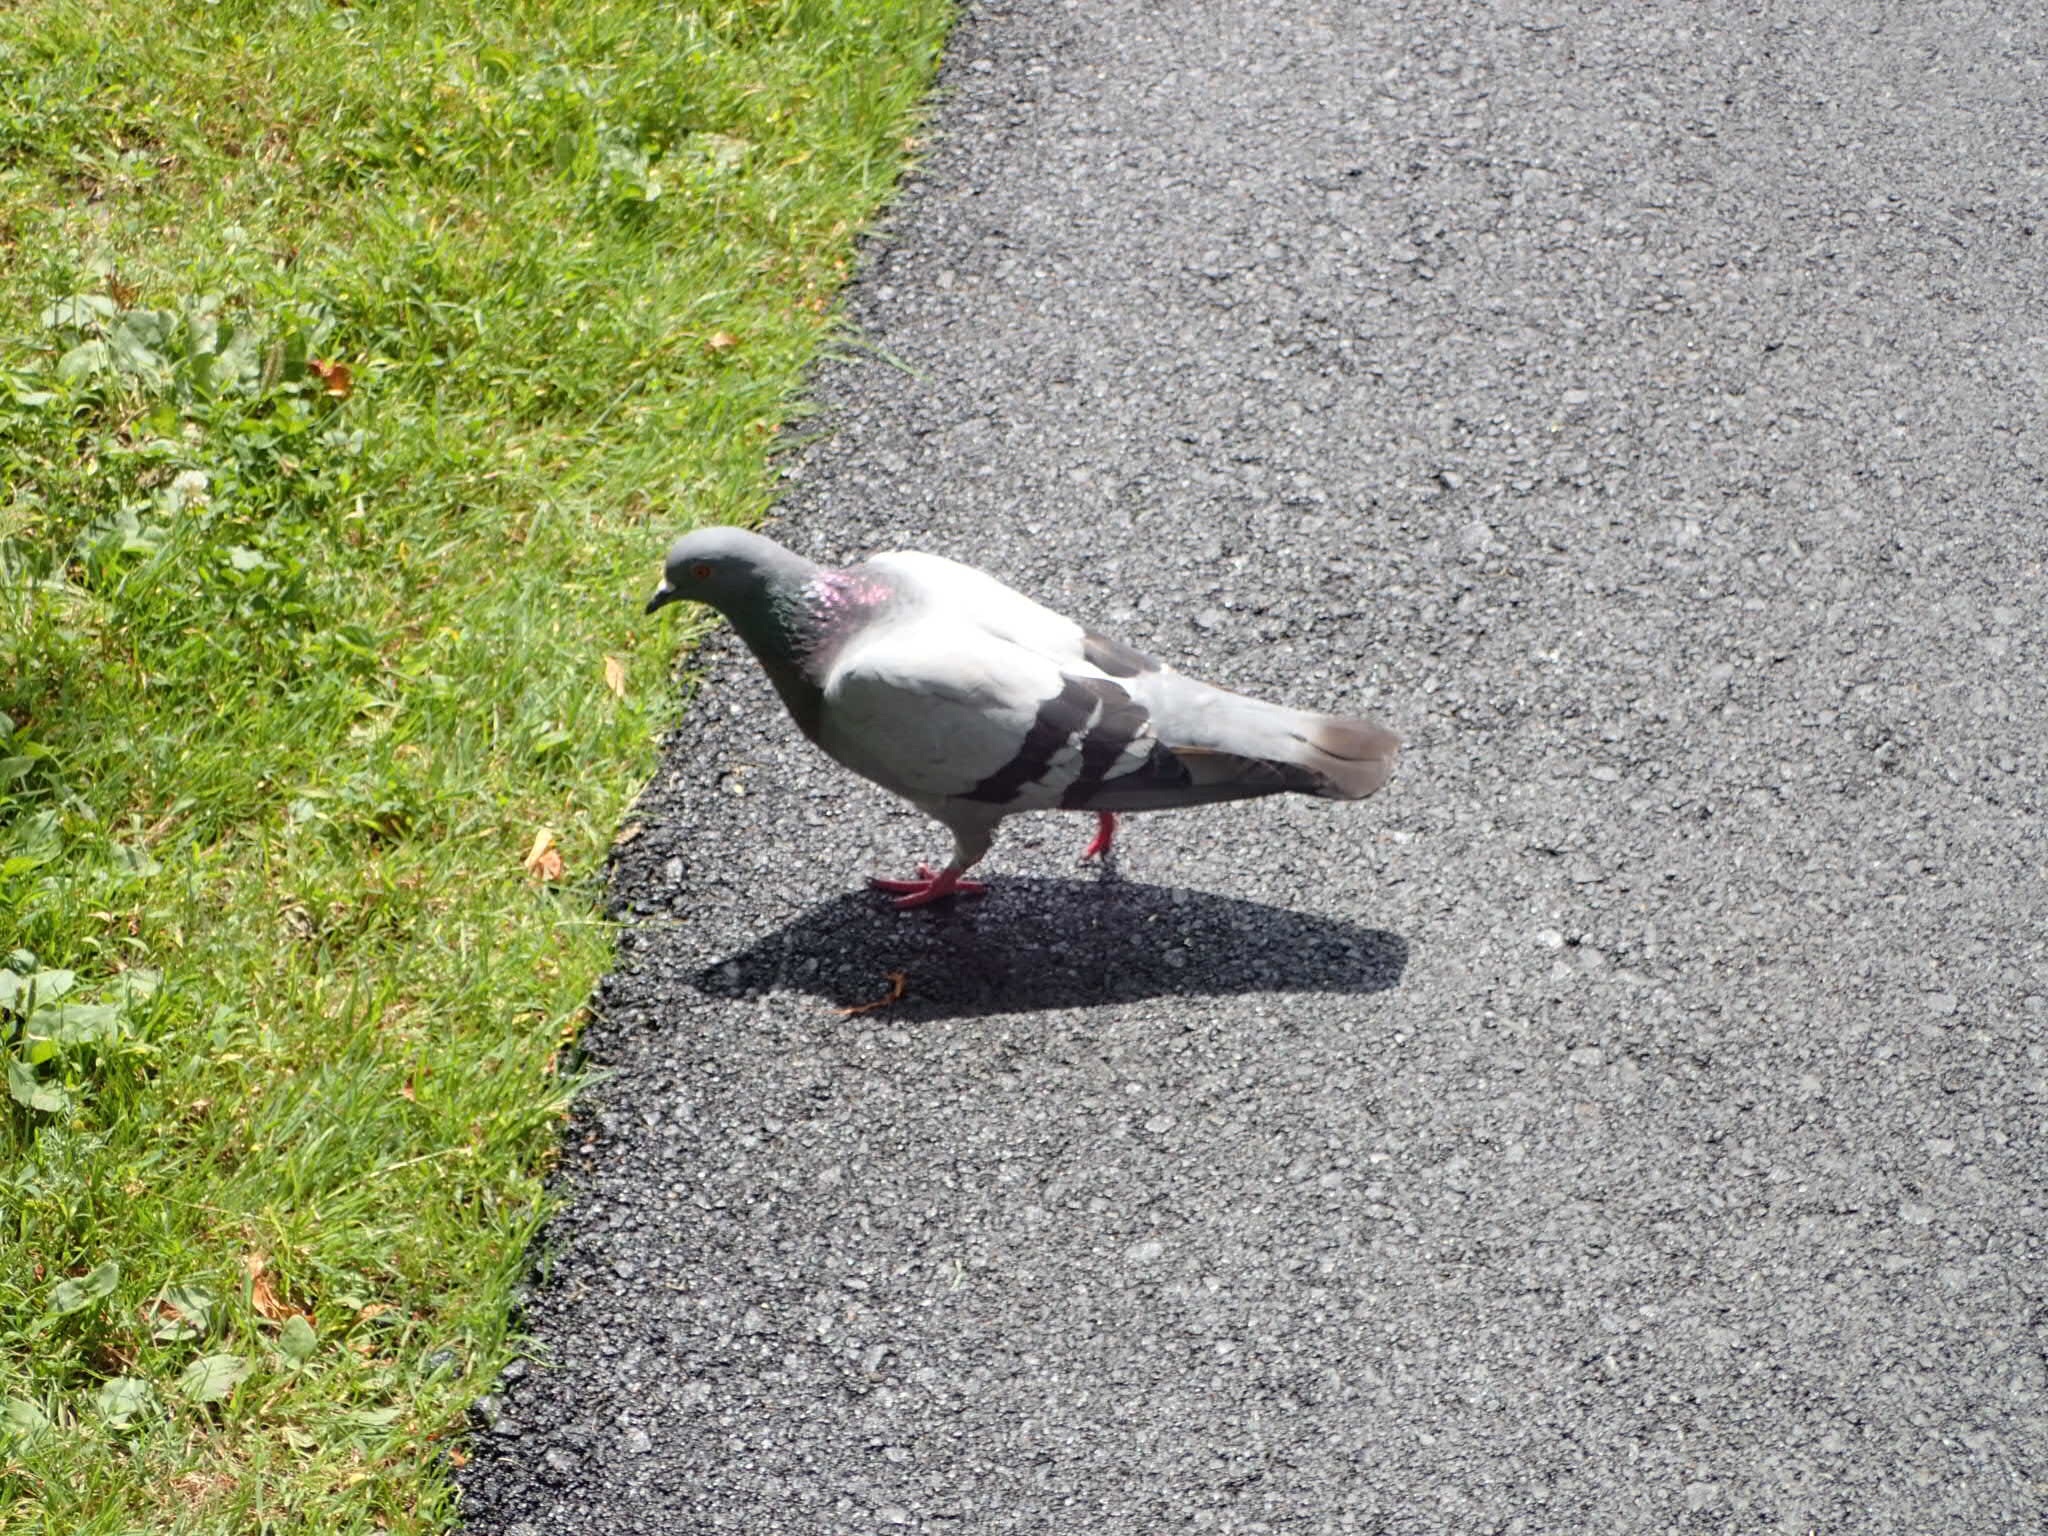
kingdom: Animalia
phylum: Chordata
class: Aves
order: Columbiformes
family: Columbidae
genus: Columba
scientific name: Columba livia
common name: Rock pigeon
